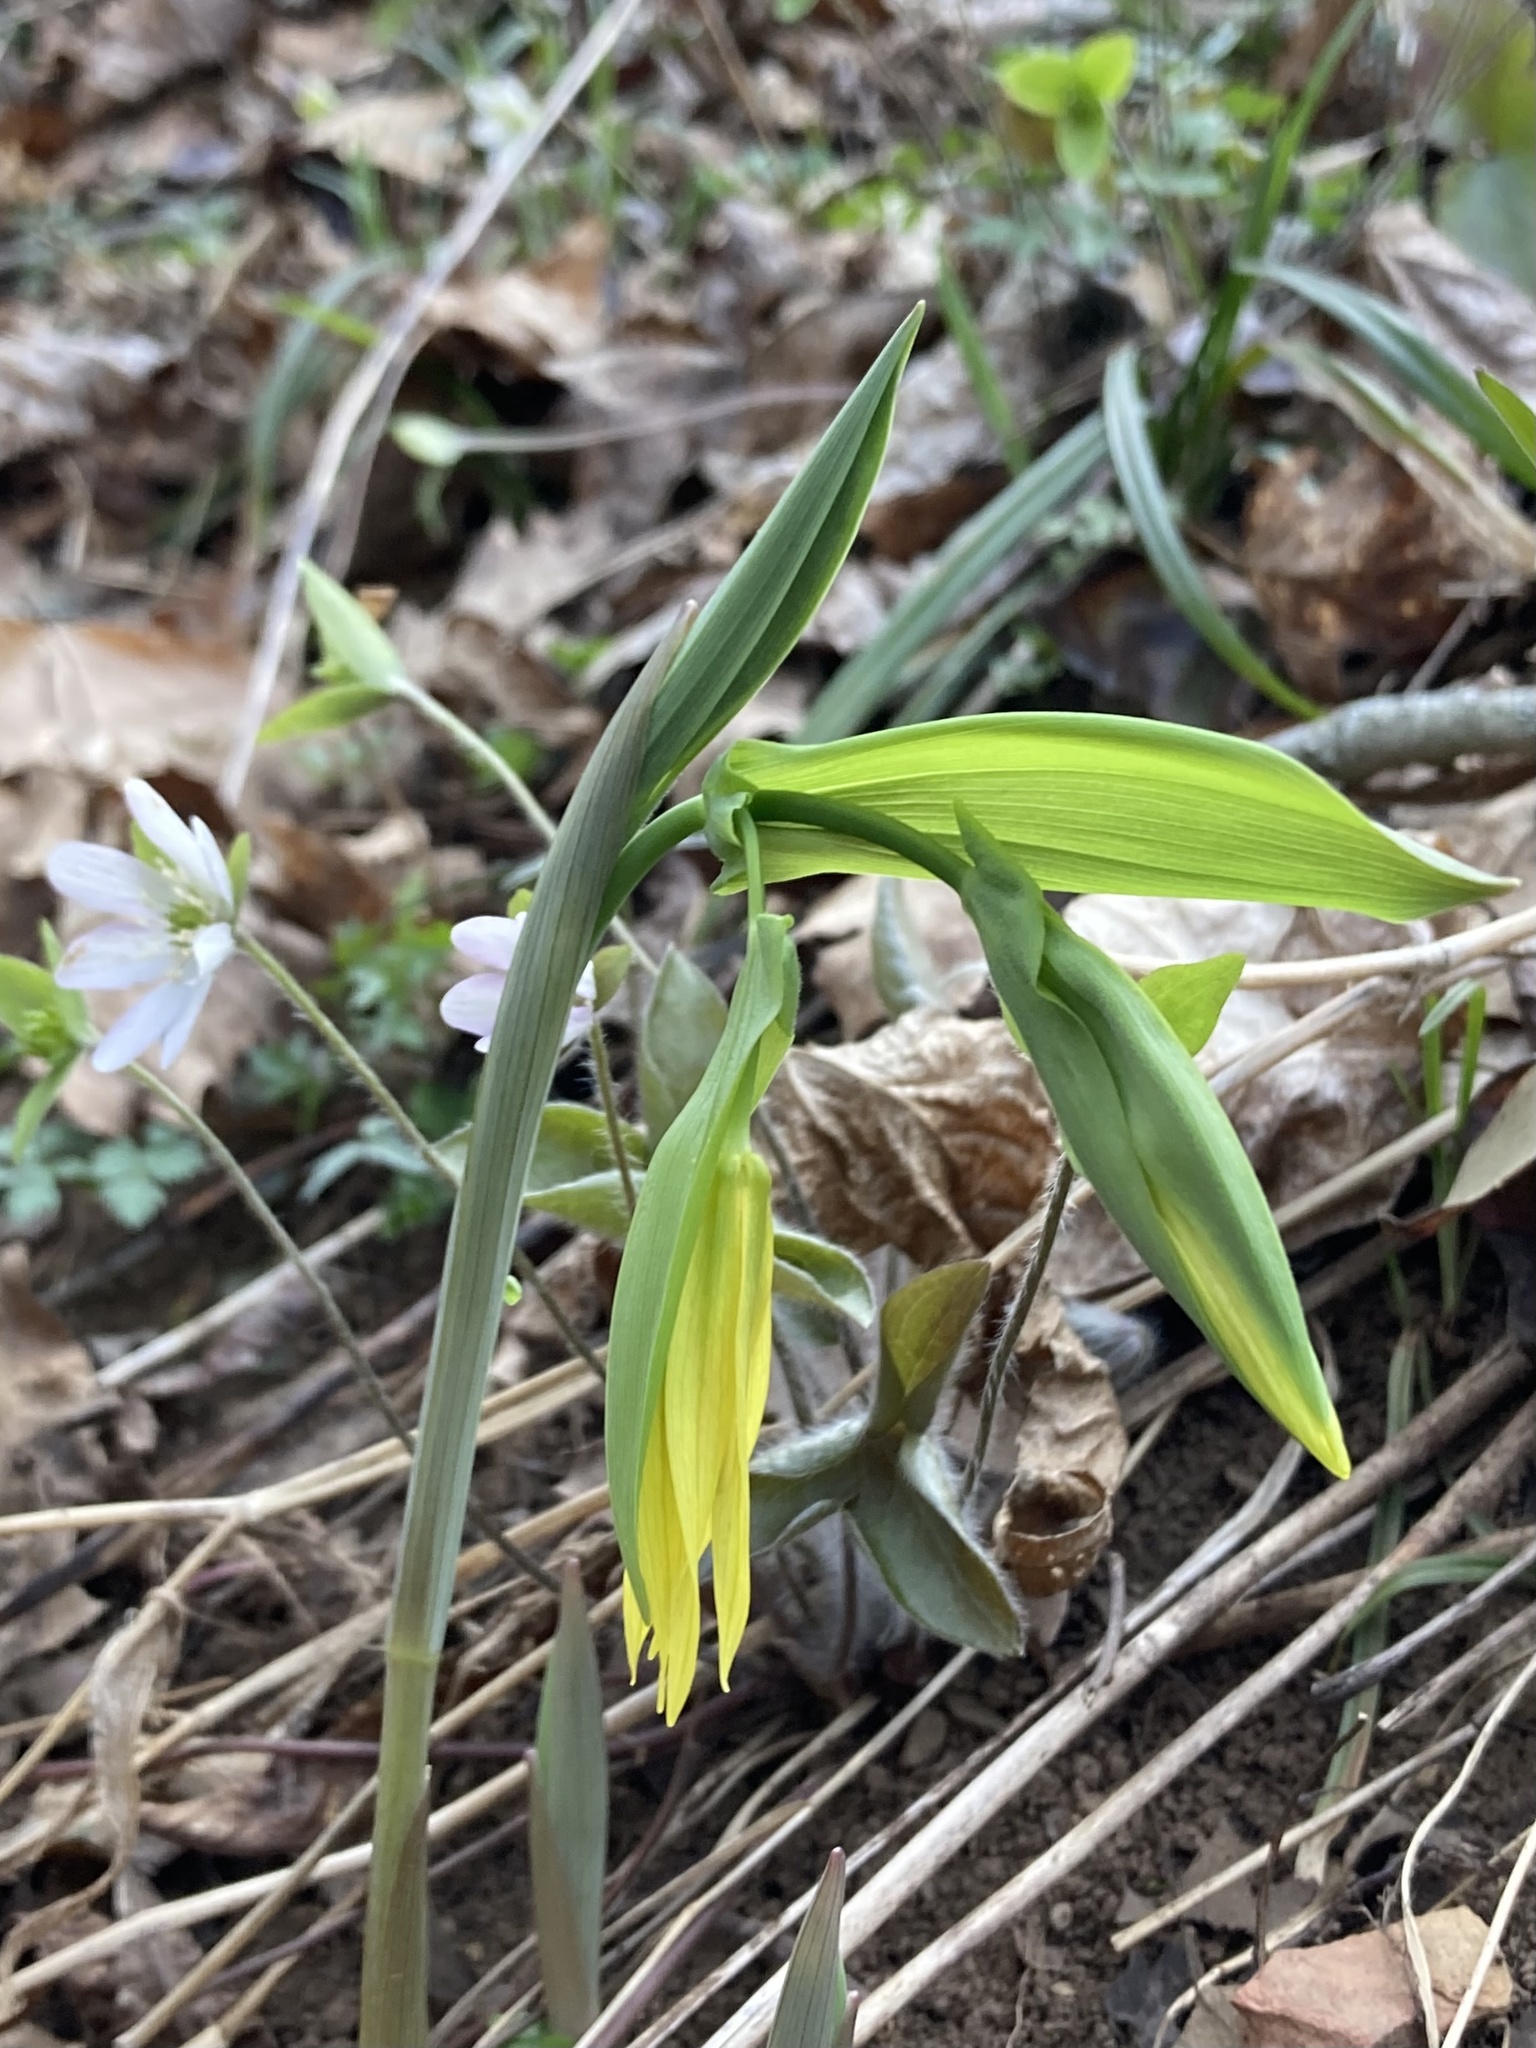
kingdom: Plantae
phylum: Tracheophyta
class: Liliopsida
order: Liliales
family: Colchicaceae
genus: Uvularia
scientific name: Uvularia grandiflora
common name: Bellwort
